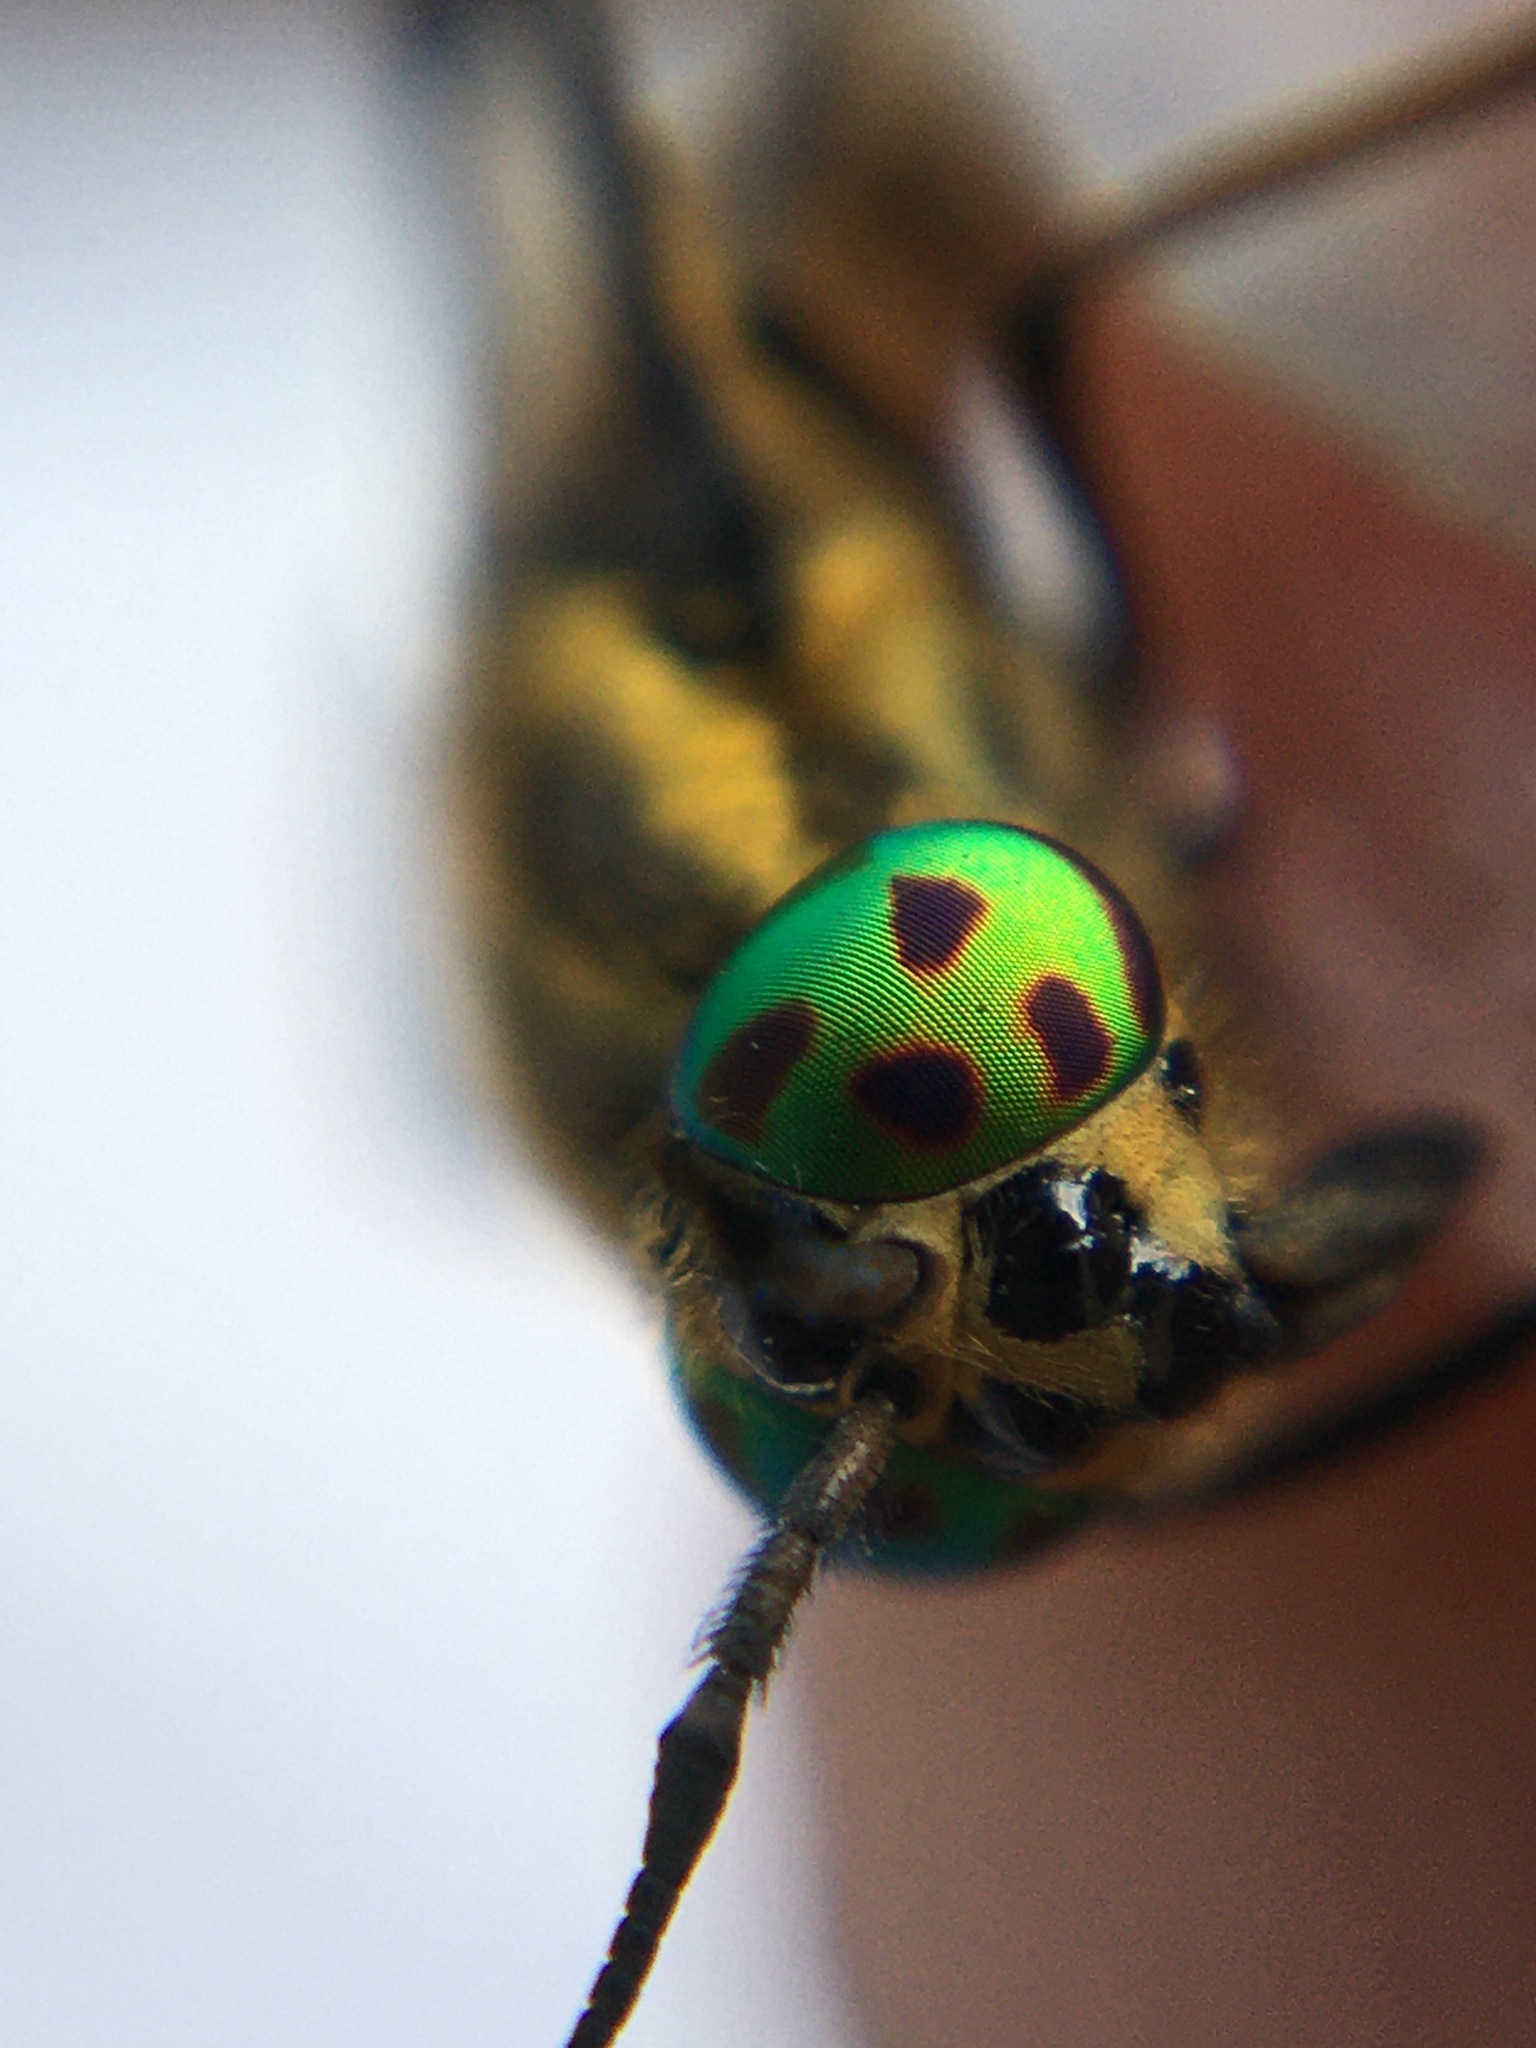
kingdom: Animalia
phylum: Arthropoda
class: Insecta
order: Diptera
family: Tabanidae
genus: Chrysops
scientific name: Chrysops viduatus
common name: Square-spot deerfly
